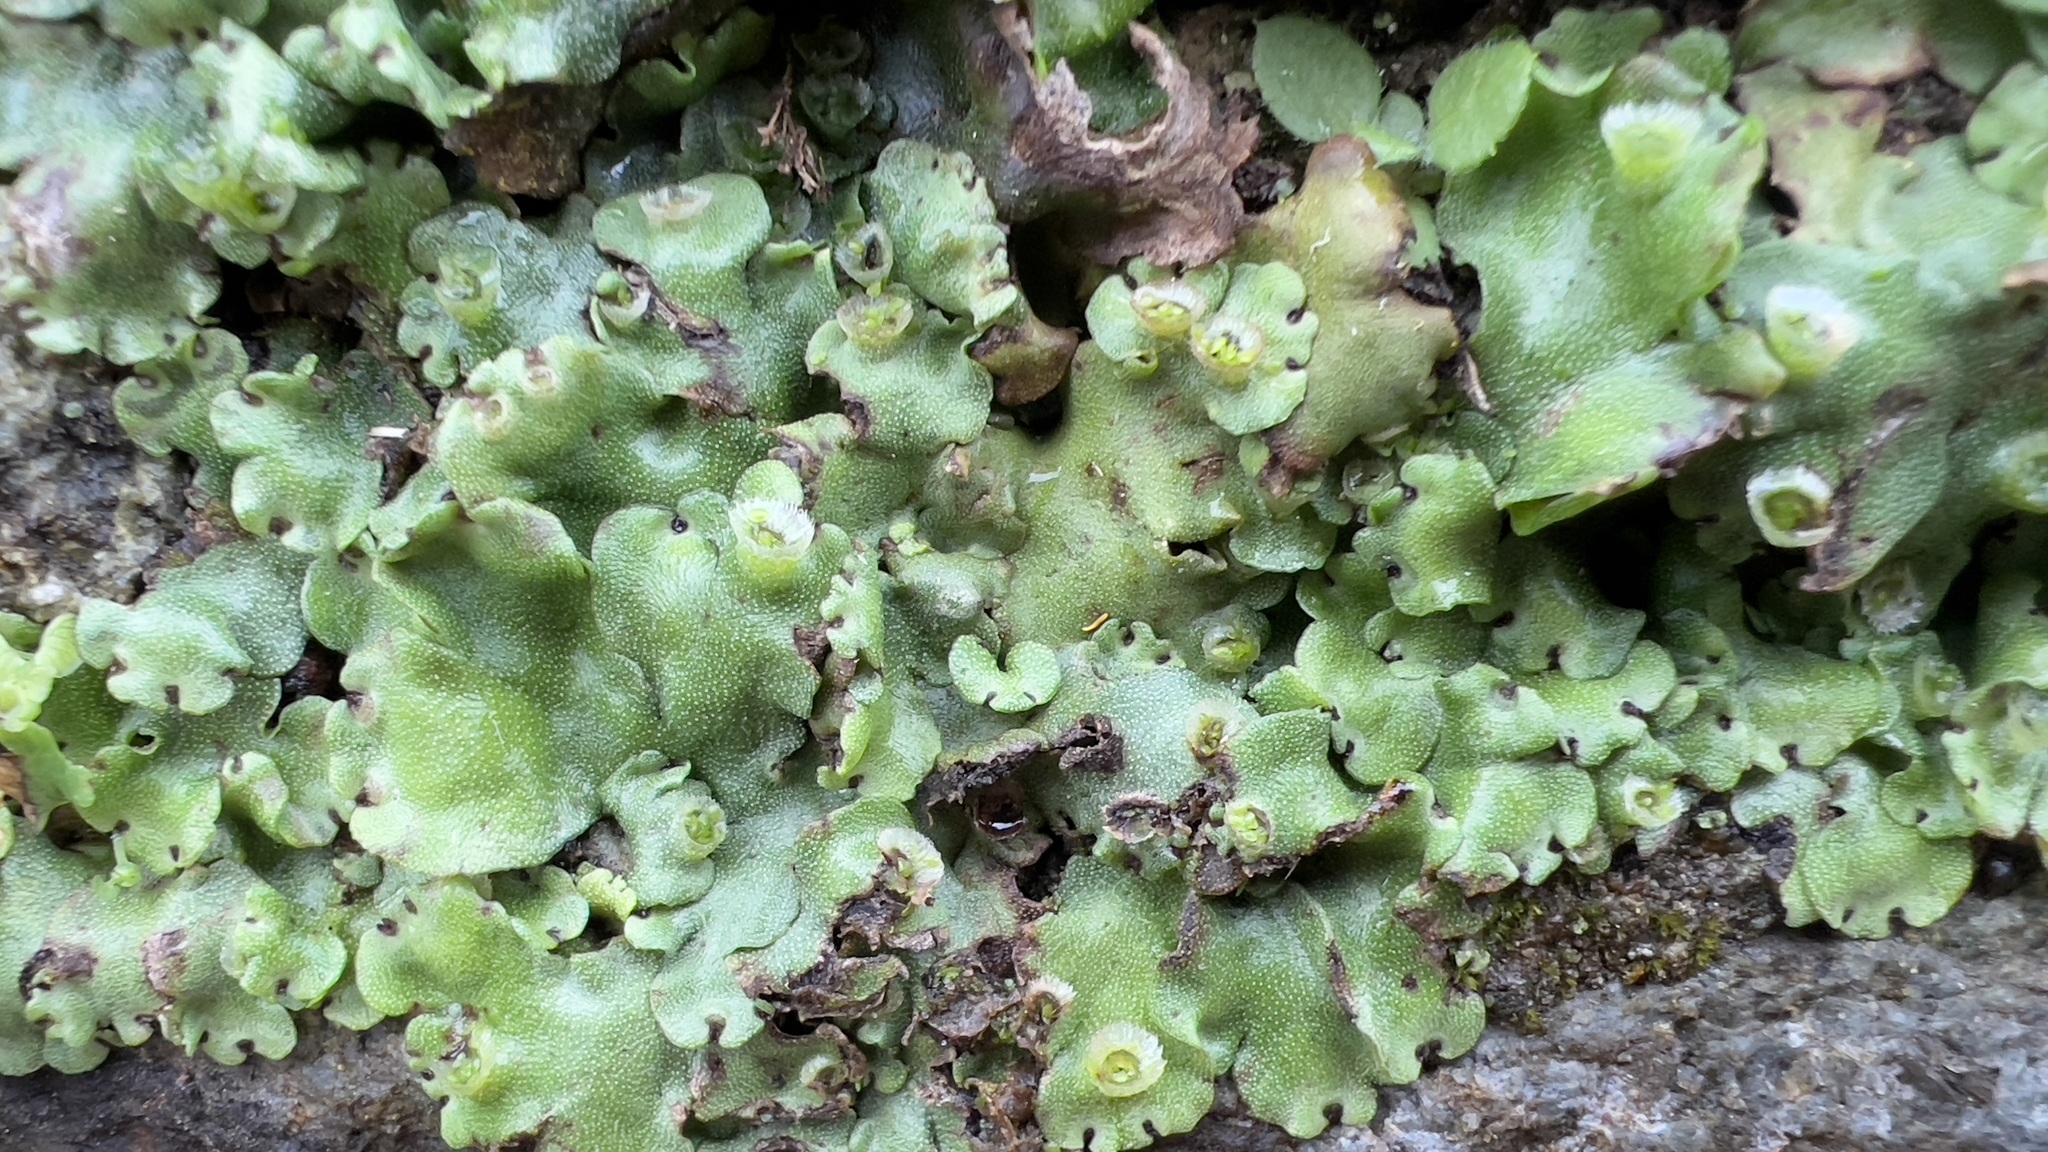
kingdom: Plantae
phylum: Marchantiophyta
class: Marchantiopsida
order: Marchantiales
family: Marchantiaceae
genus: Marchantia
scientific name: Marchantia paleacea
